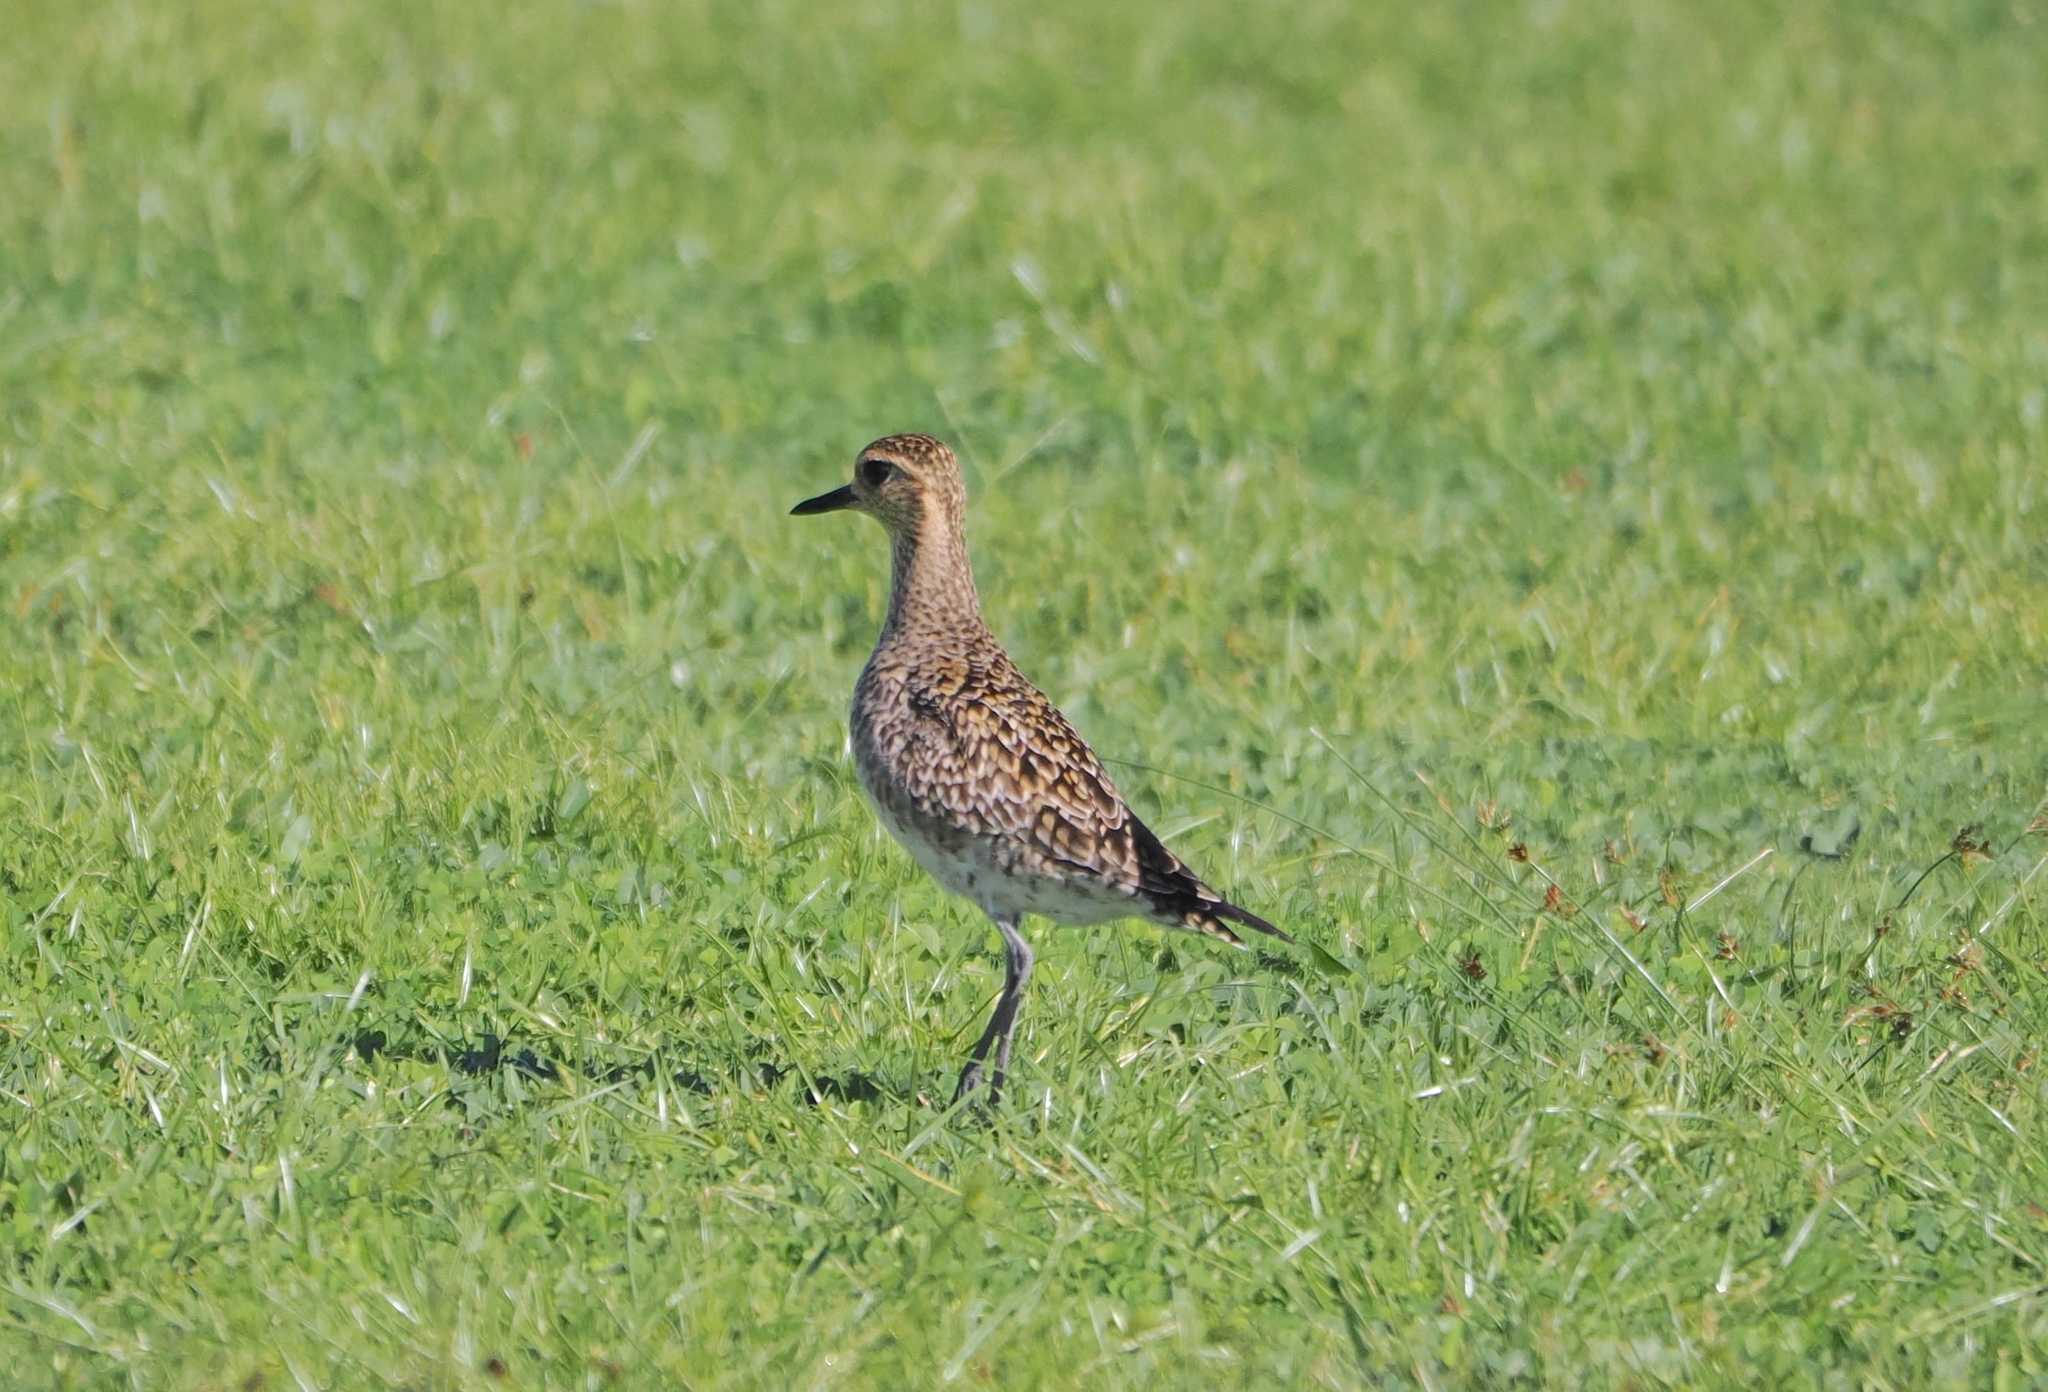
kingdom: Animalia
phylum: Chordata
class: Aves
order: Charadriiformes
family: Charadriidae
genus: Pluvialis
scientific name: Pluvialis fulva
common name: Pacific golden plover
